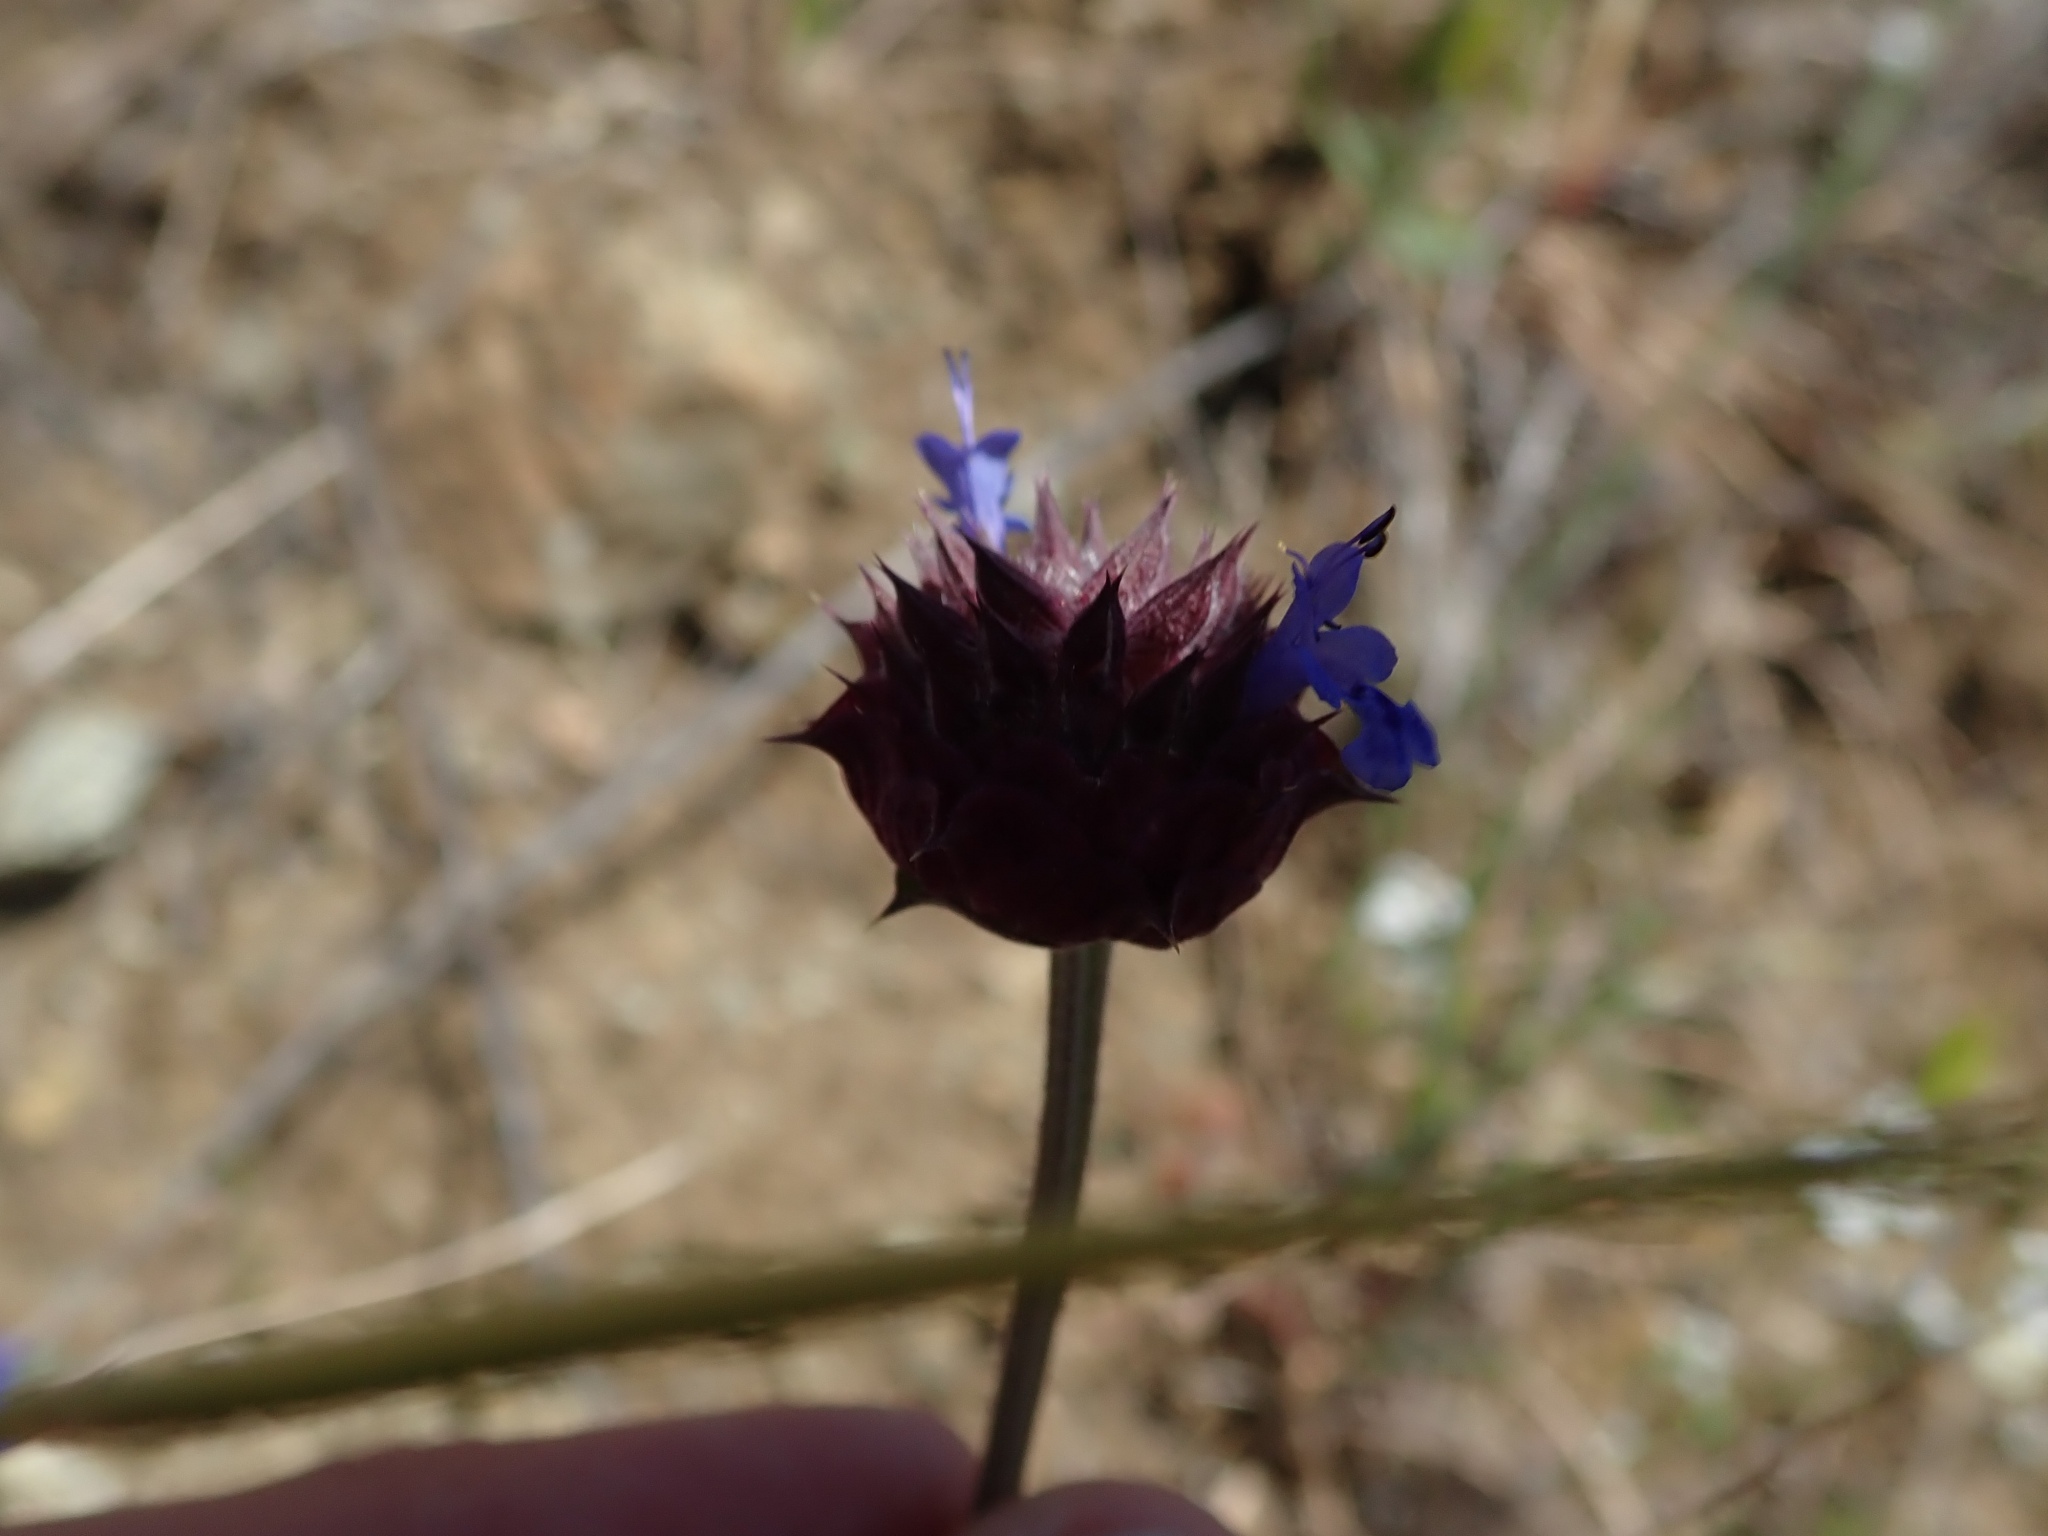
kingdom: Plantae
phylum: Tracheophyta
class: Magnoliopsida
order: Lamiales
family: Lamiaceae
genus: Salvia
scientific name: Salvia columbariae
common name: Chia
